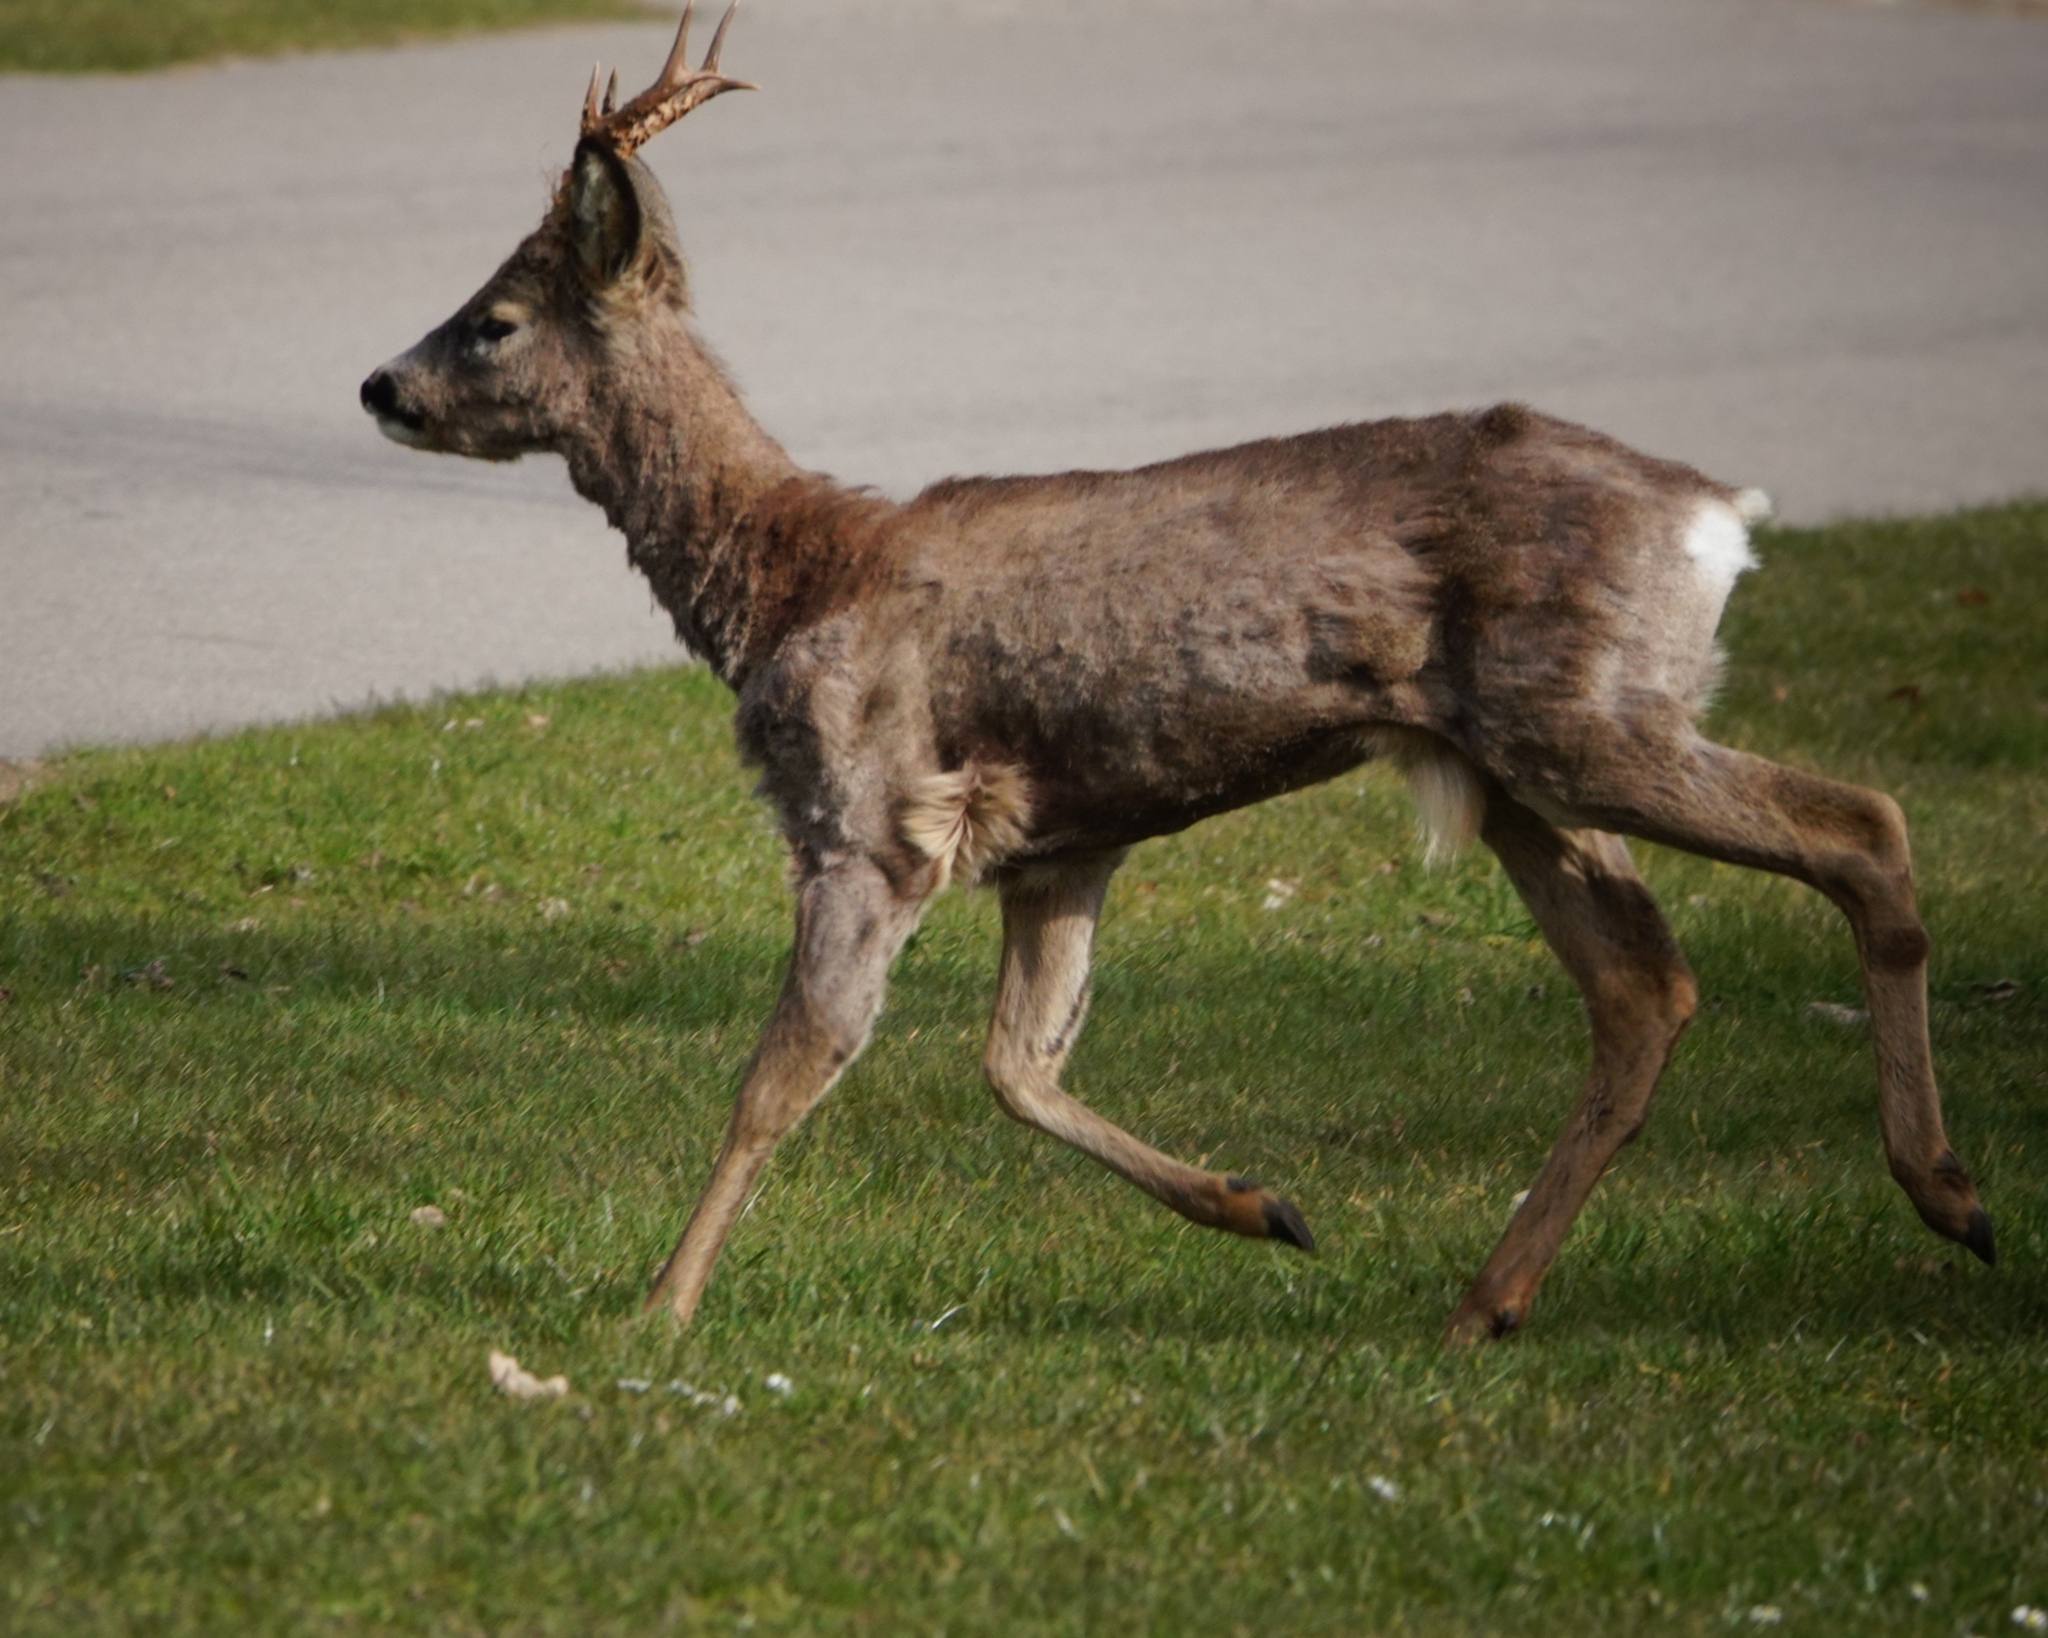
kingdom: Animalia
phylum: Chordata
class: Mammalia
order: Artiodactyla
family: Cervidae
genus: Capreolus
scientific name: Capreolus capreolus
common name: Western roe deer
